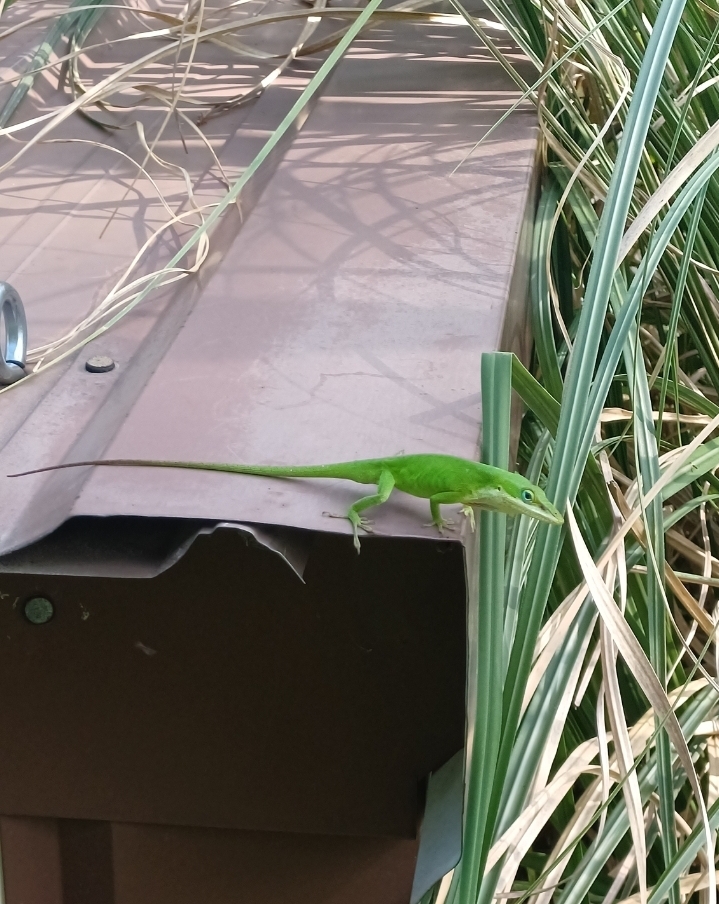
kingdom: Animalia
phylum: Chordata
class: Squamata
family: Dactyloidae
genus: Anolis
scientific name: Anolis carolinensis
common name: Green anole
